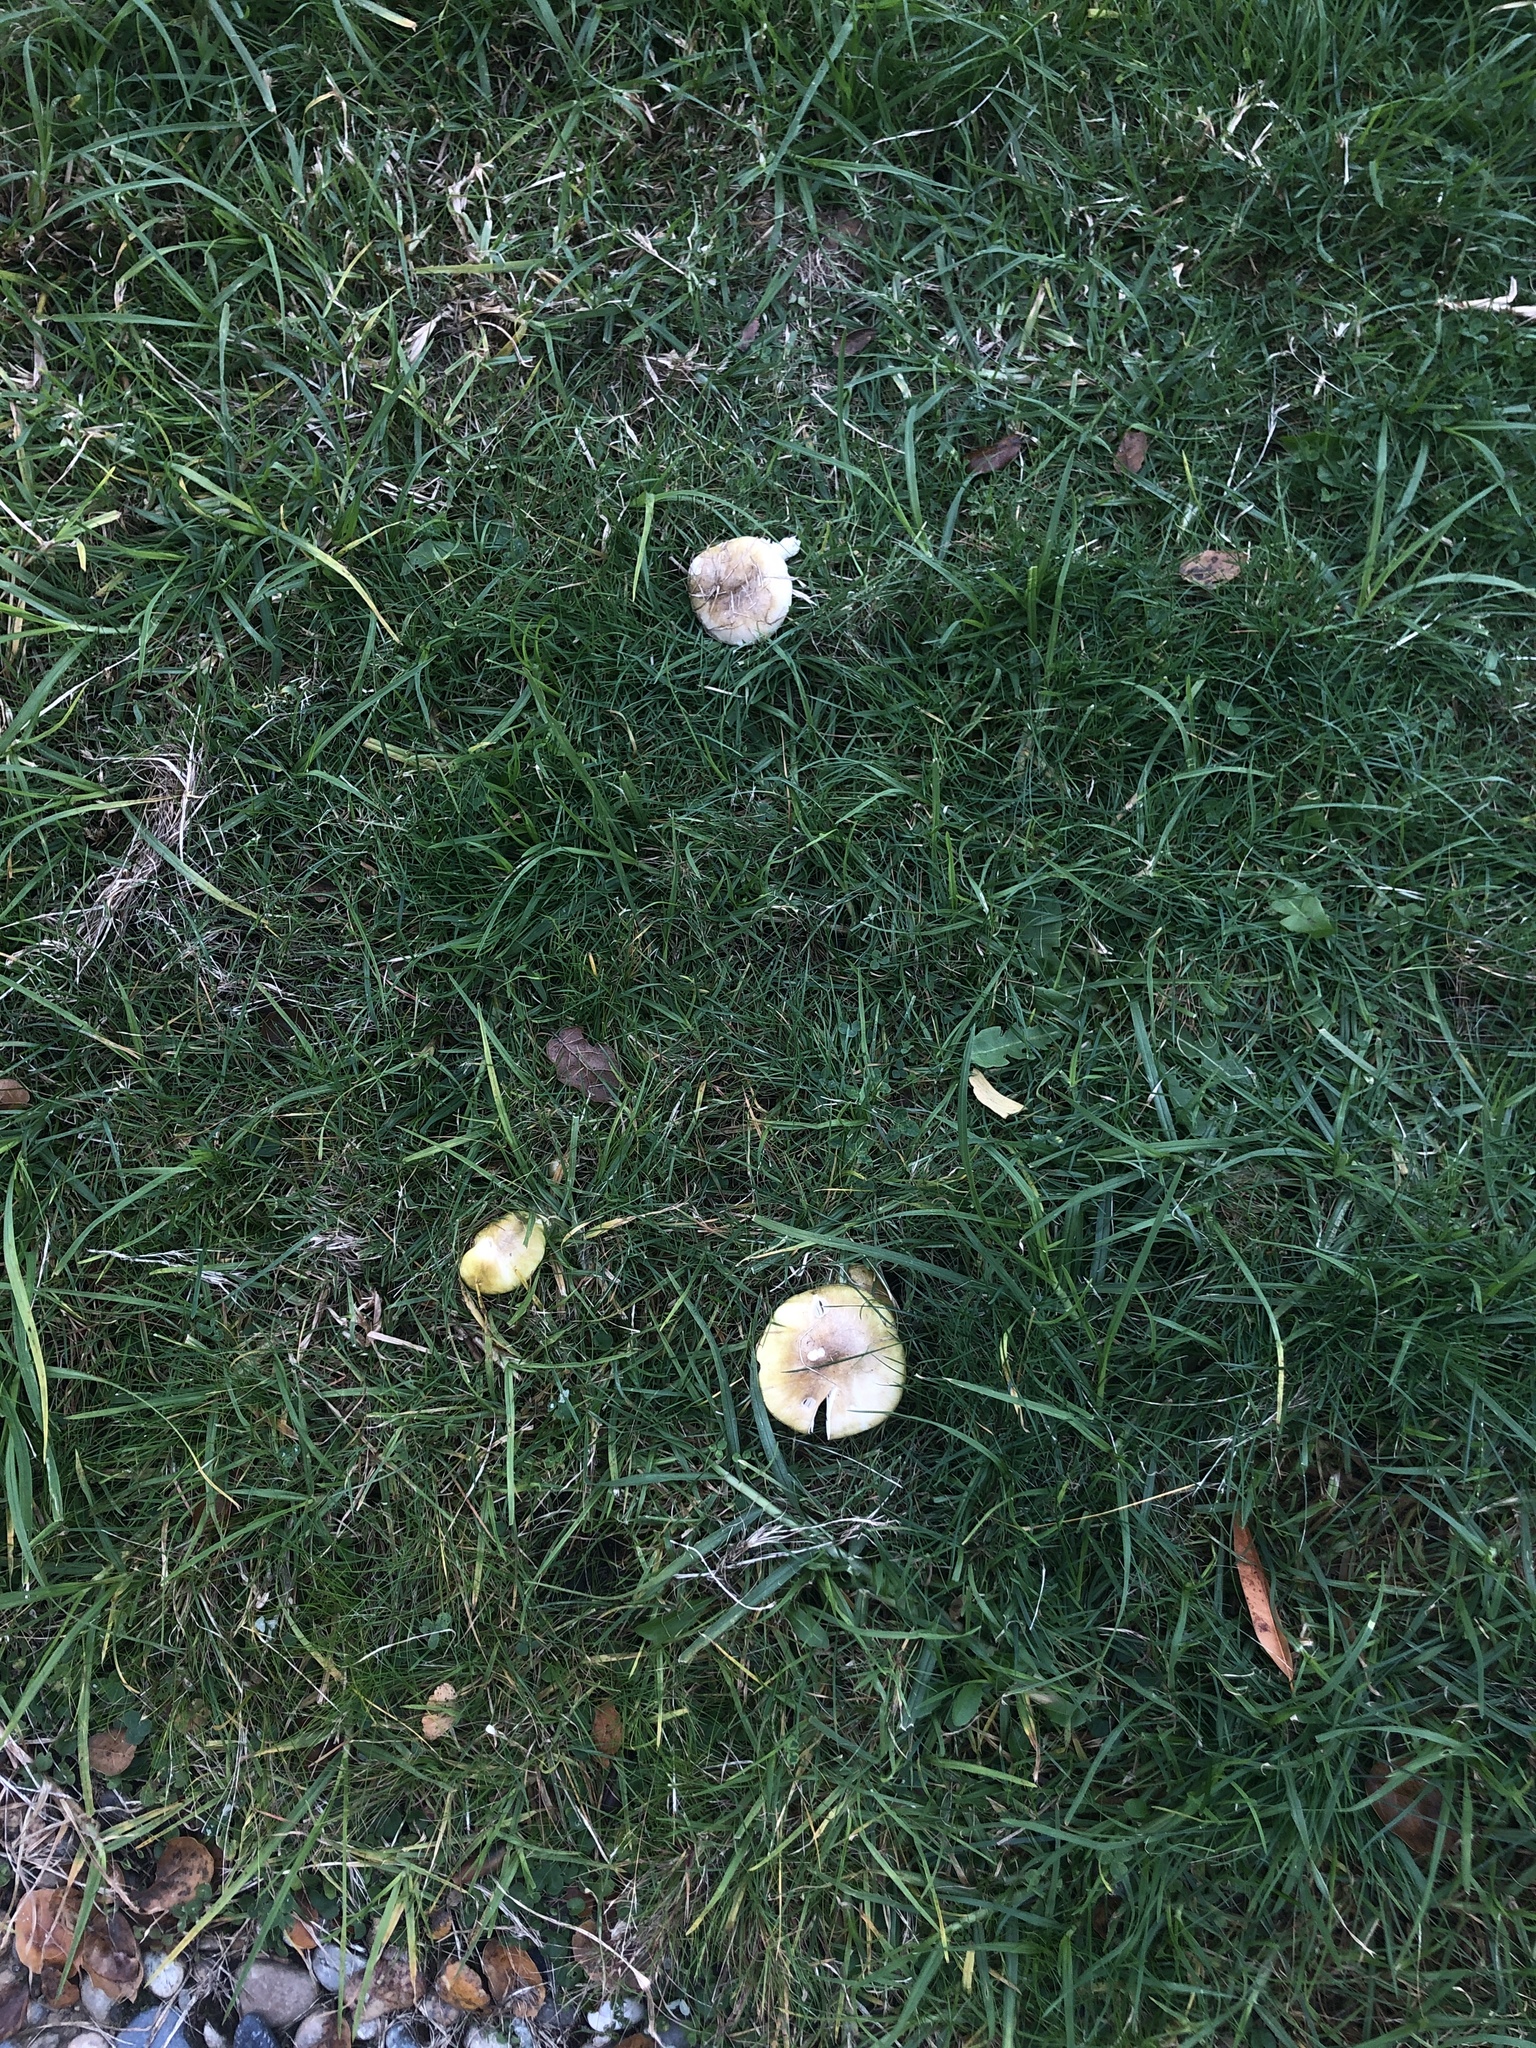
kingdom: Fungi
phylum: Basidiomycota
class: Agaricomycetes
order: Agaricales
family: Amanitaceae
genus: Amanita
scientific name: Amanita phalloides
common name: Death cap
